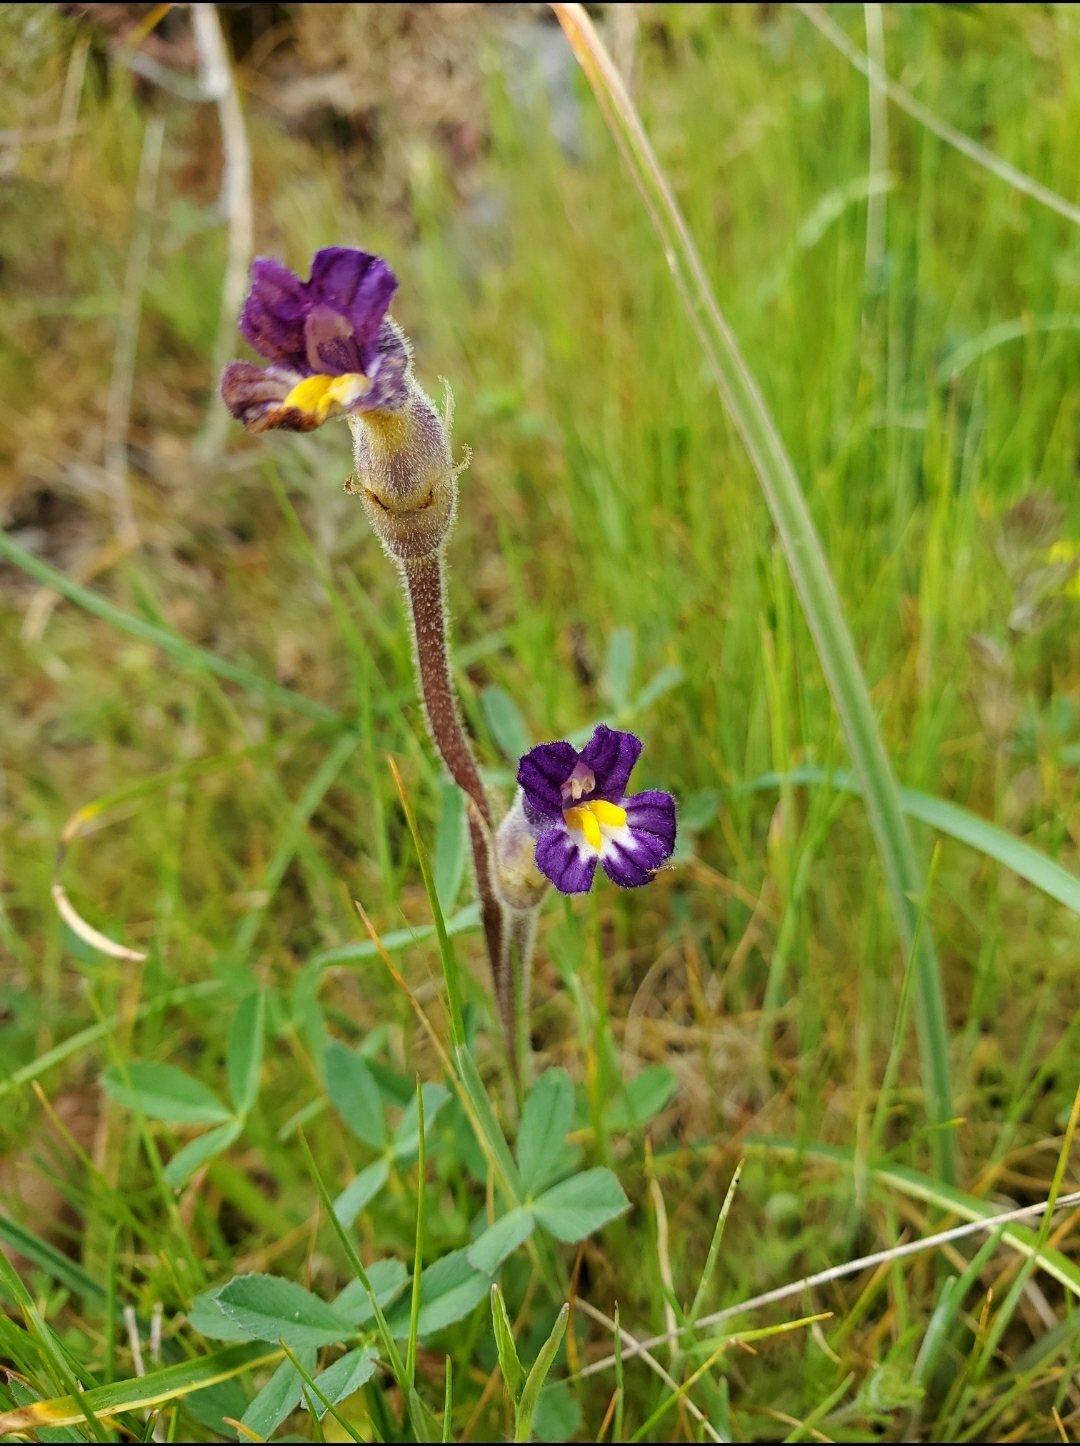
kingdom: Plantae
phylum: Tracheophyta
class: Magnoliopsida
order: Lamiales
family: Orobanchaceae
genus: Aphyllon
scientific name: Aphyllon uniflorum
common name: One-flowered broomrape
